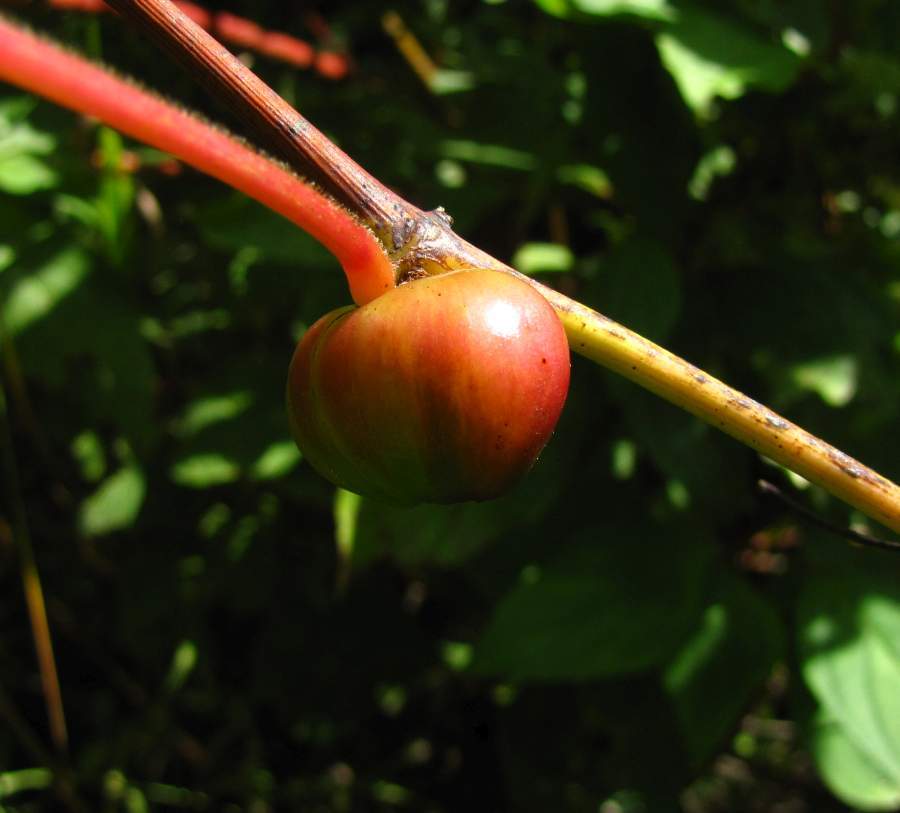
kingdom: Animalia
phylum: Arthropoda
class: Insecta
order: Diptera
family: Cecidomyiidae
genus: Ampelomyia
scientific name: Ampelomyia vitispomum
